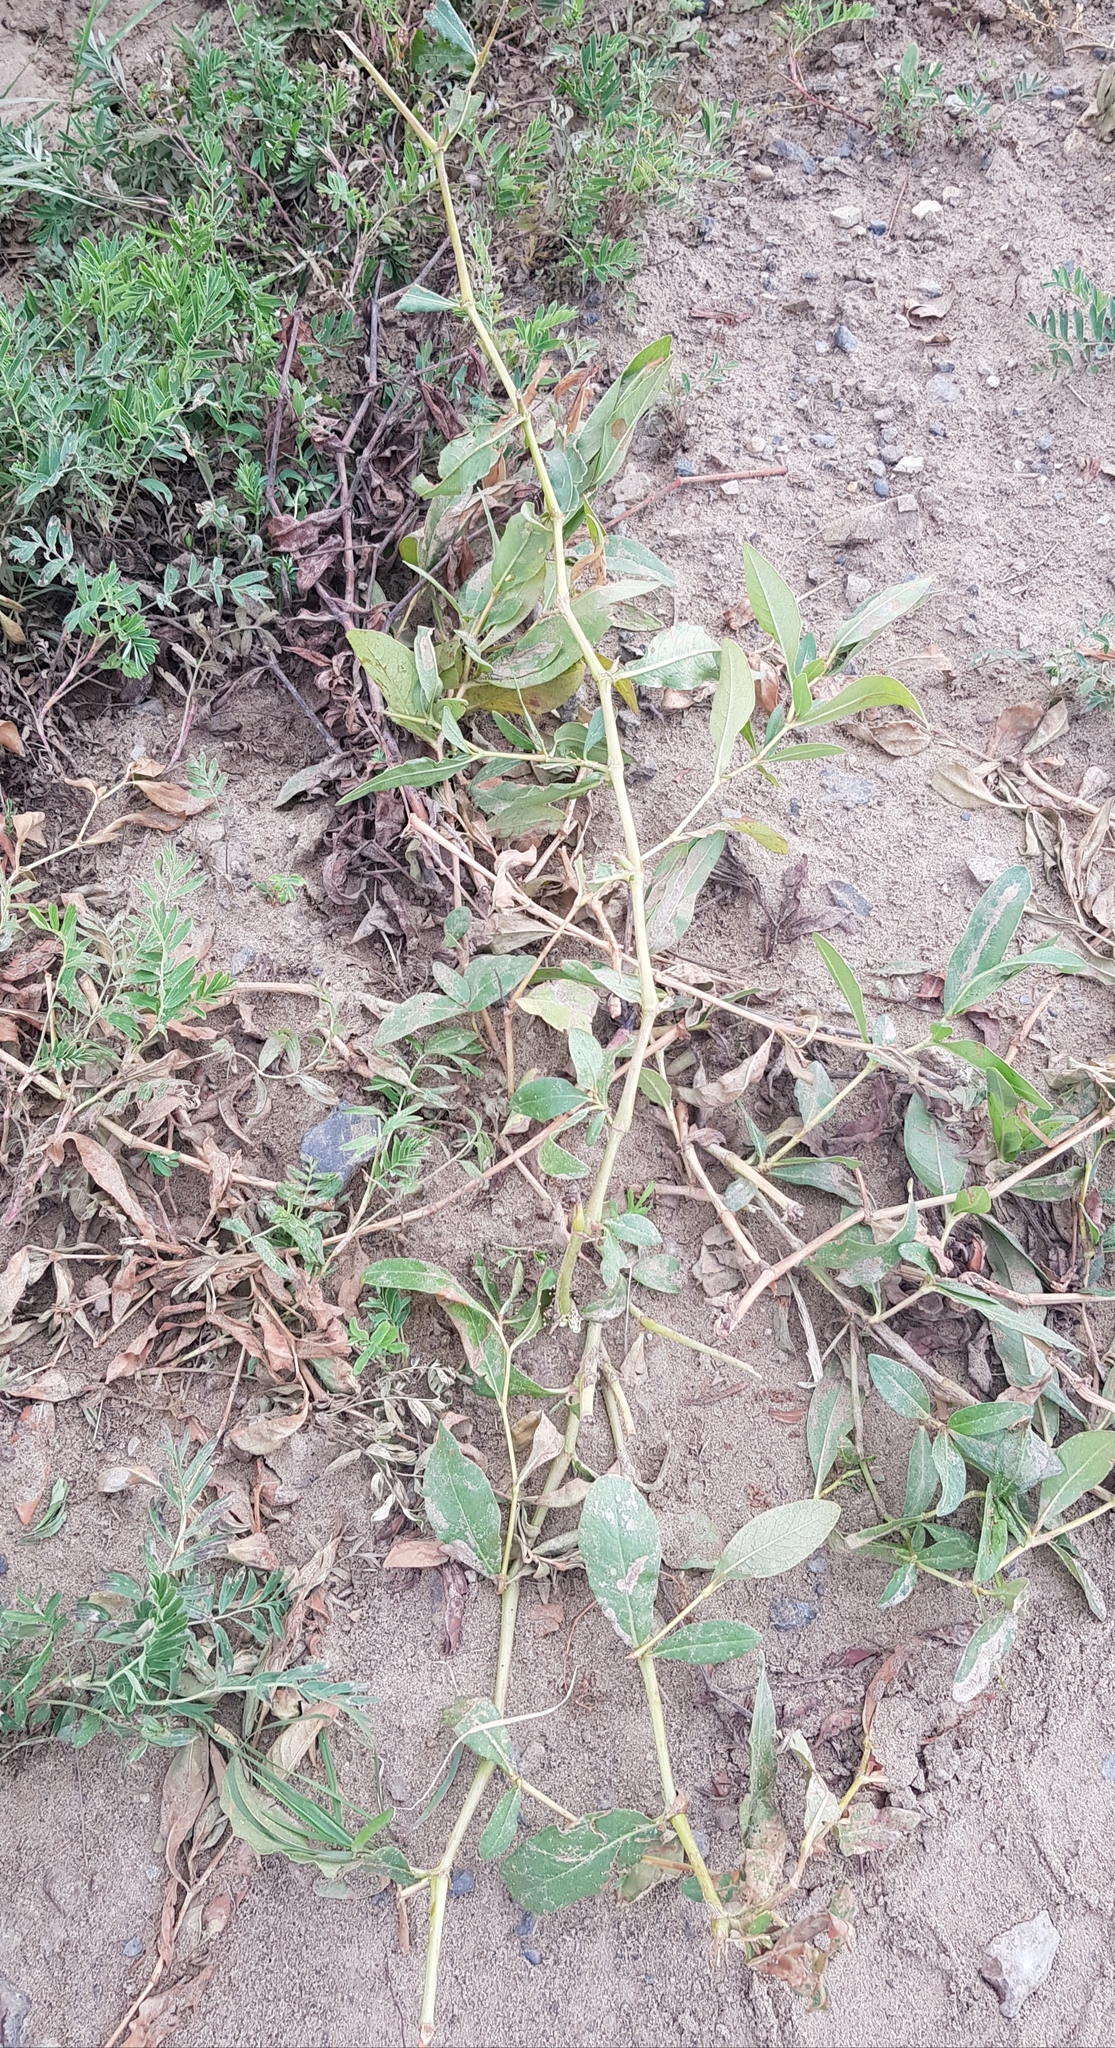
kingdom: Plantae
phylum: Tracheophyta
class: Magnoliopsida
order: Caryophyllales
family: Polygonaceae
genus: Persicaria
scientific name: Persicaria lapathifolia
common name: Curlytop knotweed
